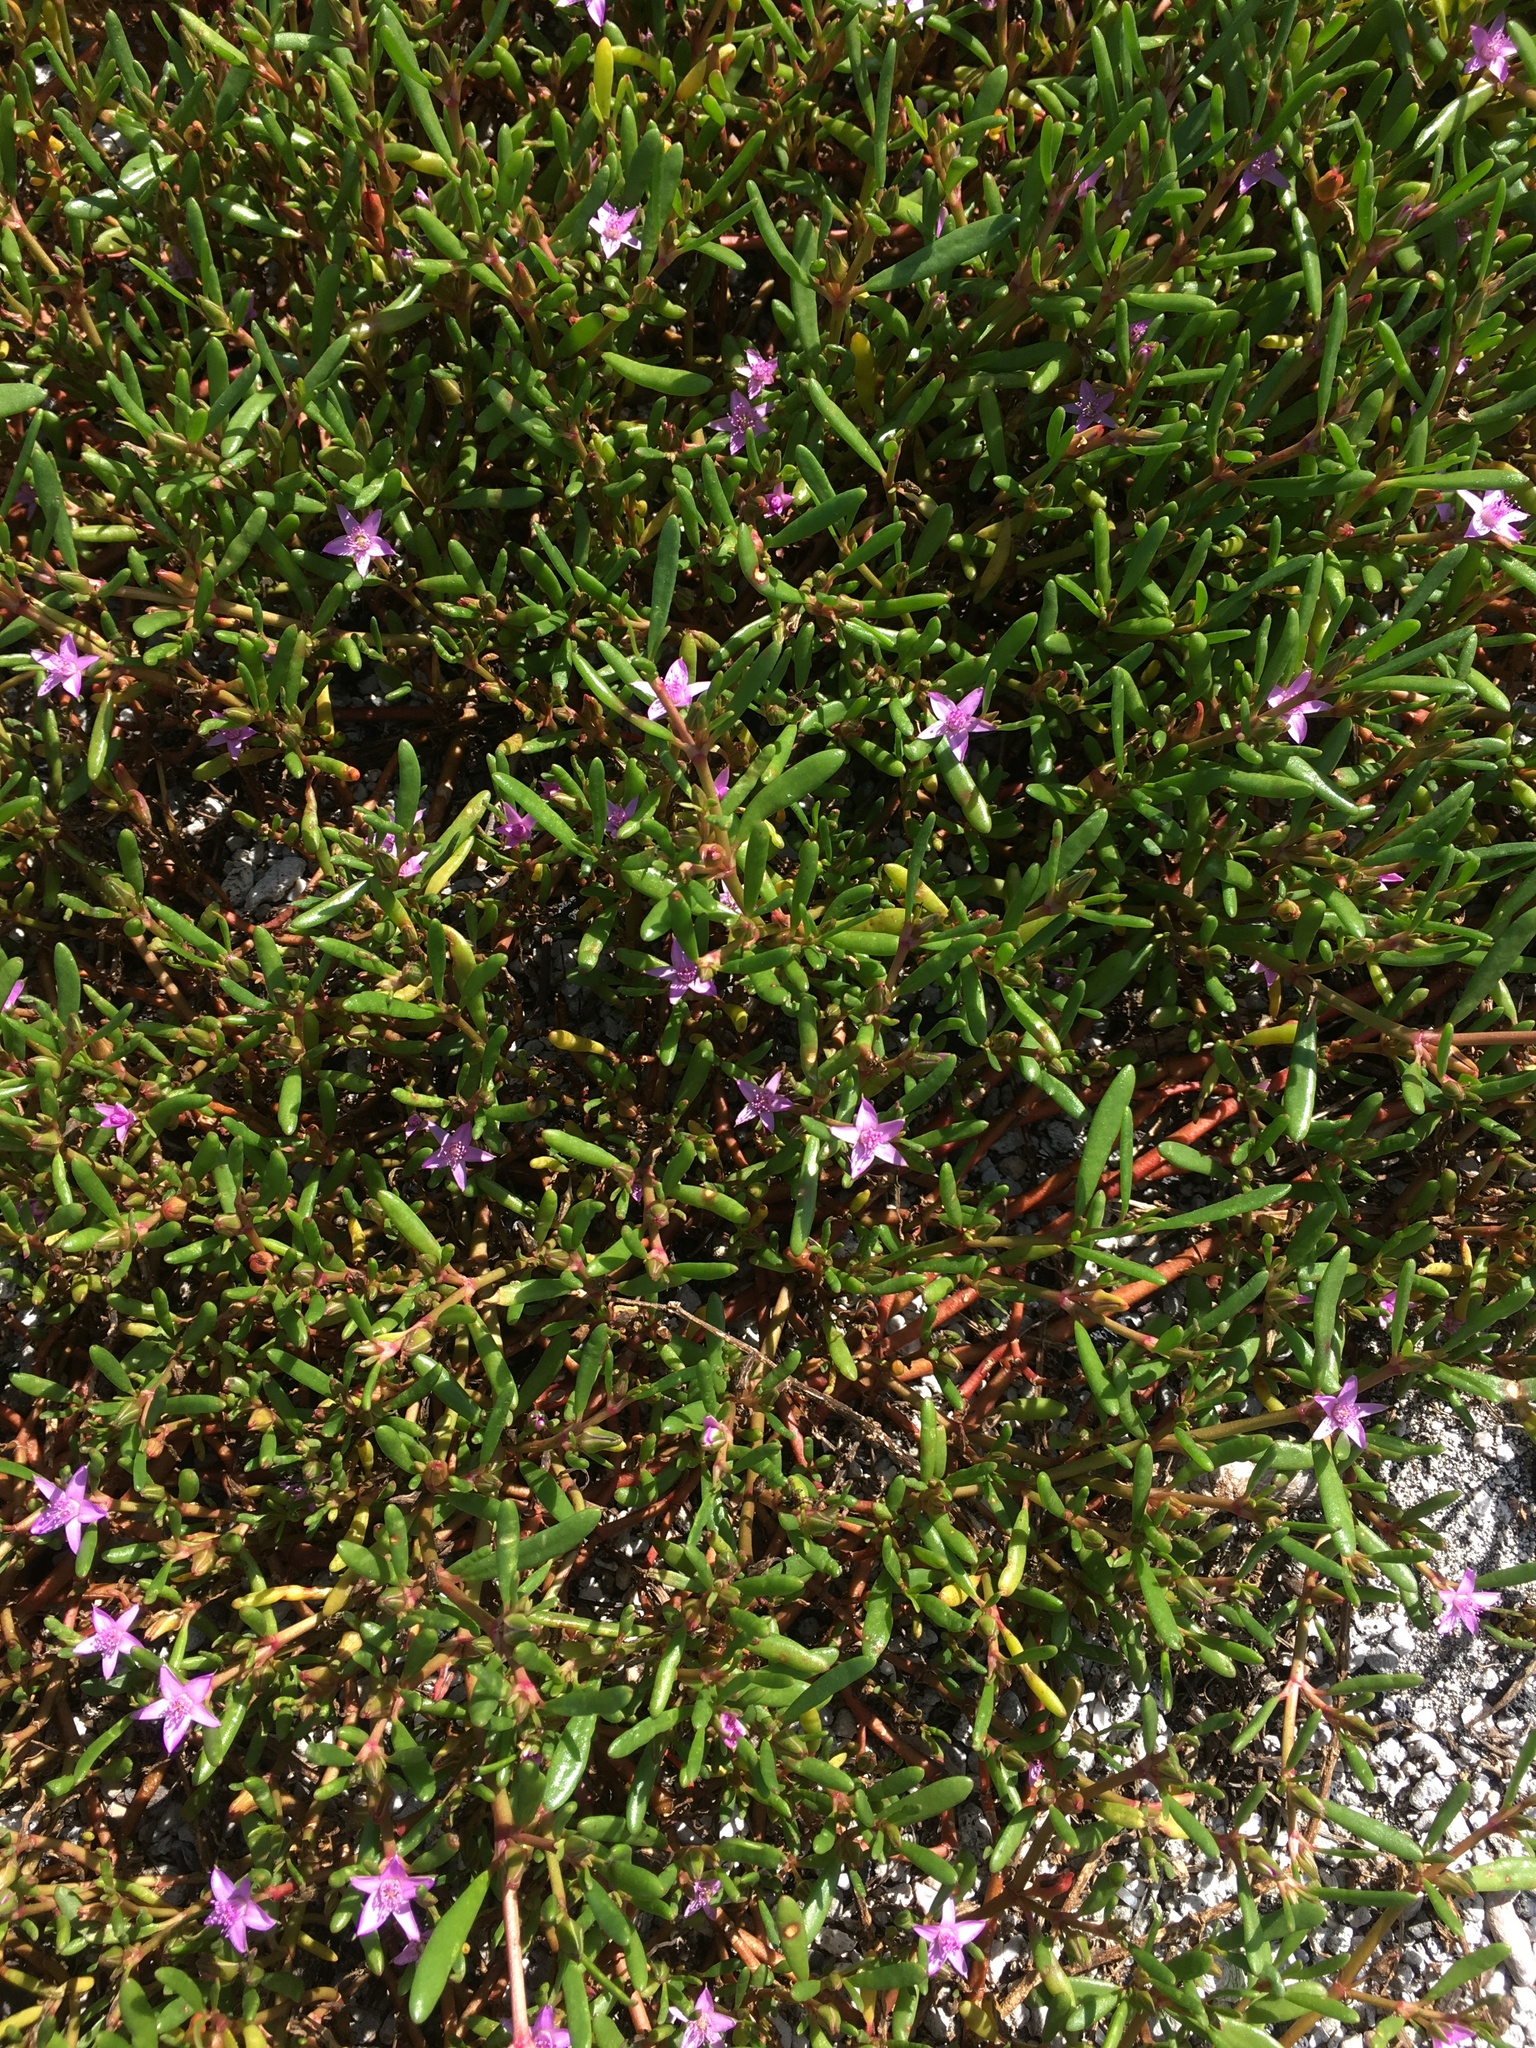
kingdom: Plantae
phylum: Tracheophyta
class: Magnoliopsida
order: Caryophyllales
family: Aizoaceae
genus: Sesuvium
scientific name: Sesuvium portulacastrum
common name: Sea-purslane
